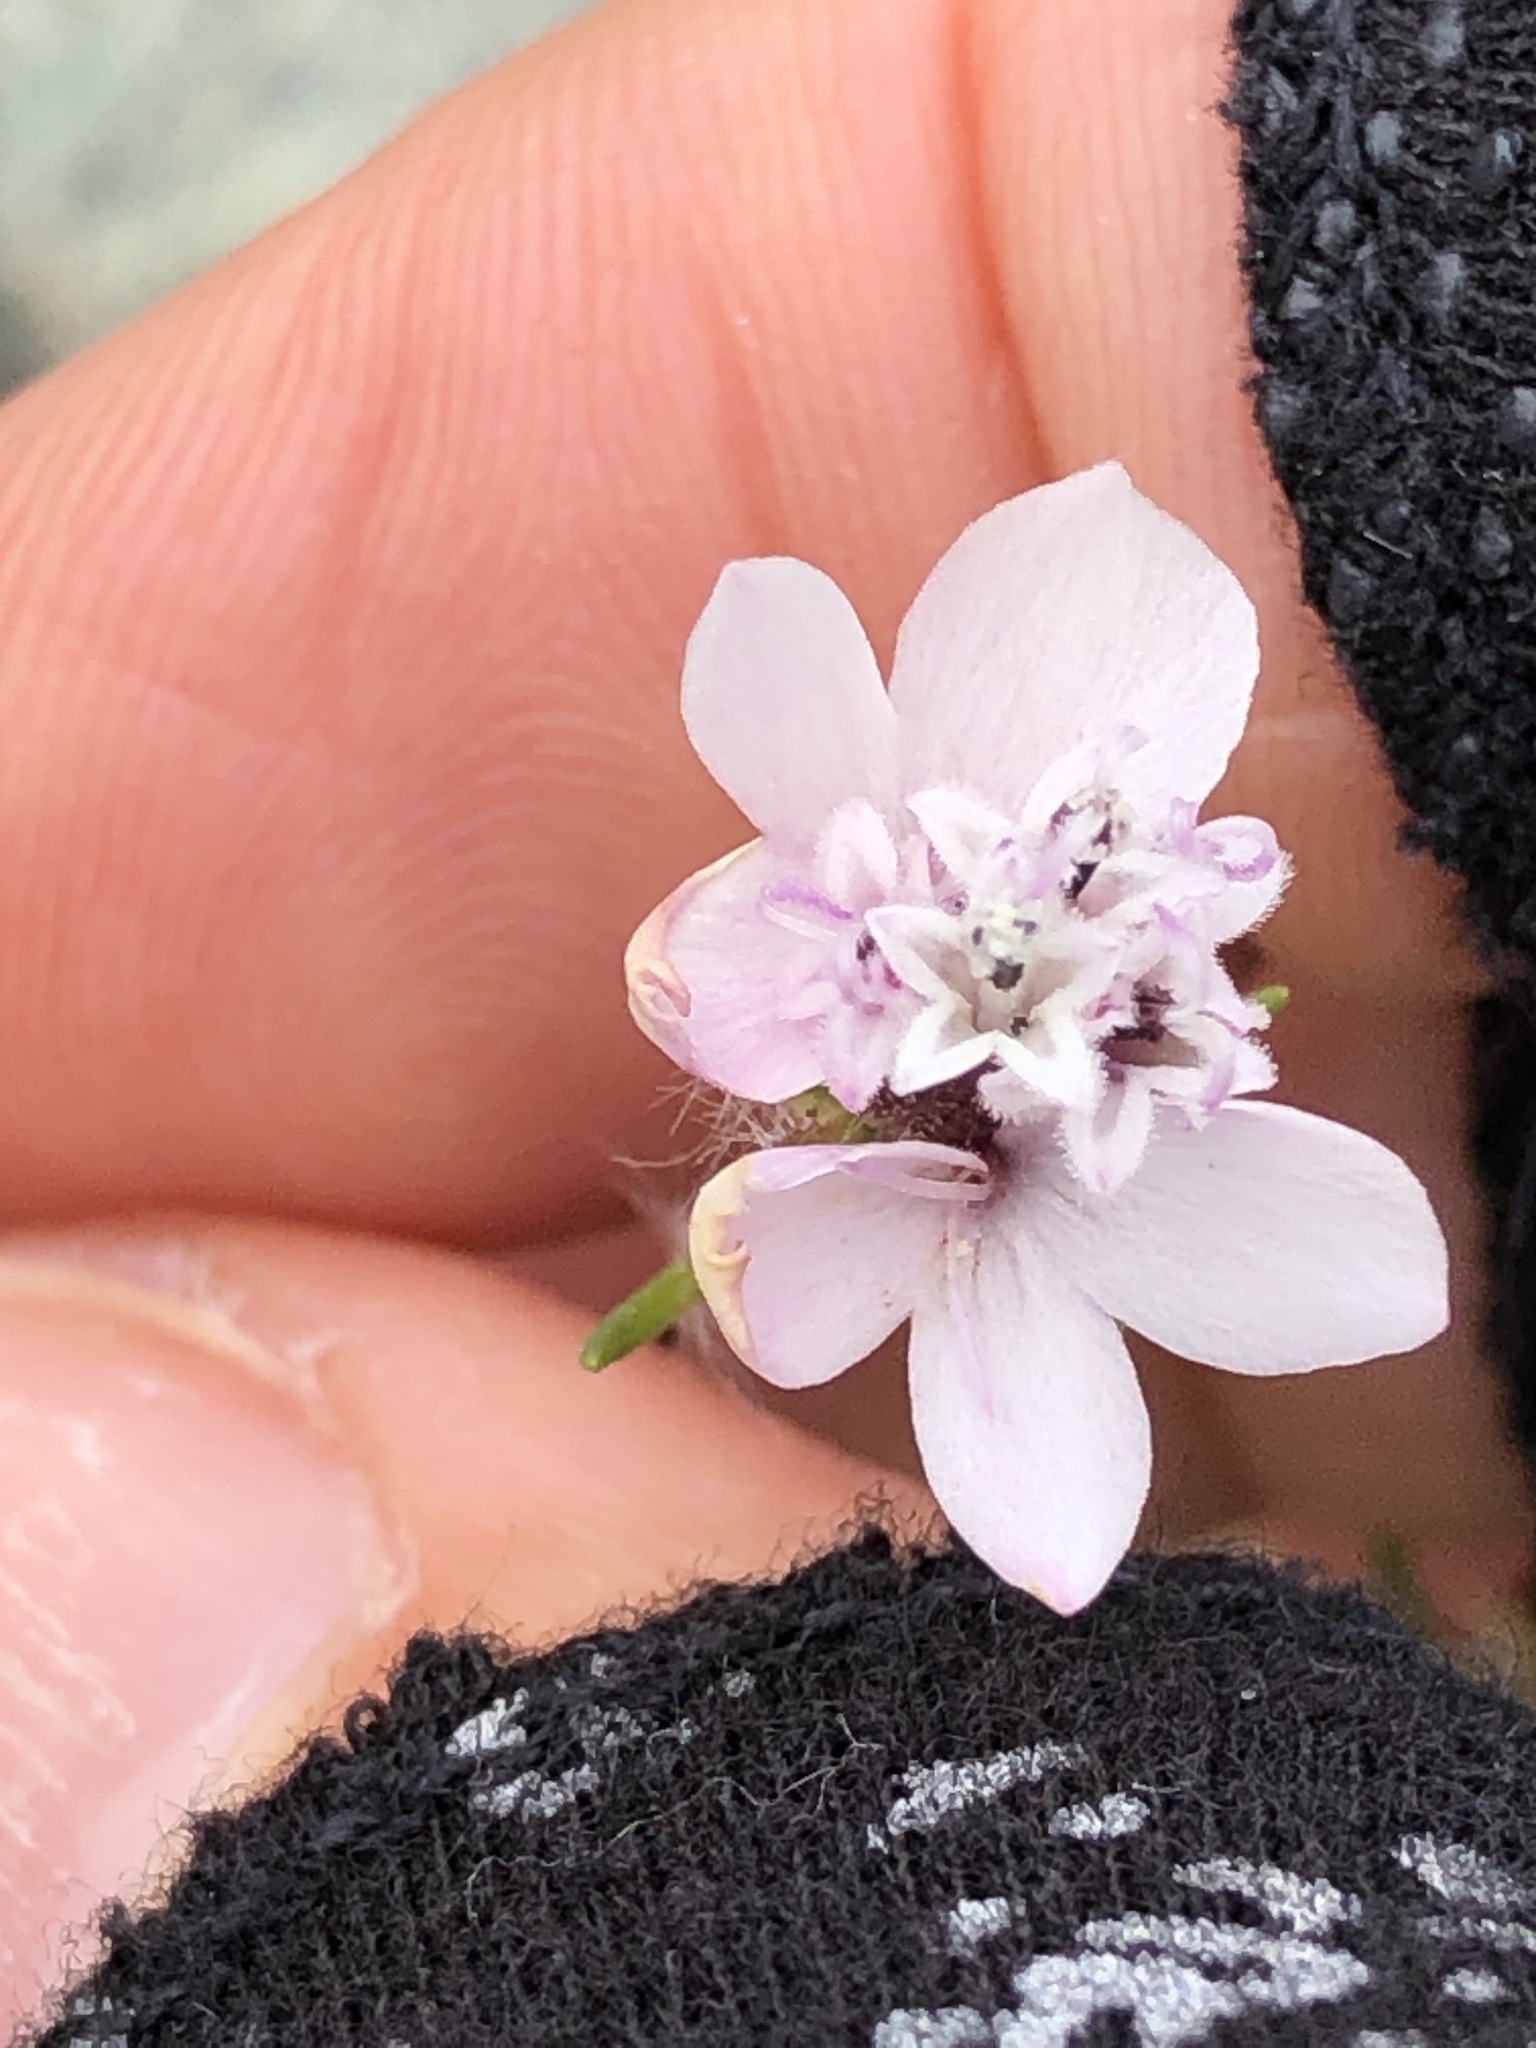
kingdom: Plantae
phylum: Tracheophyta
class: Magnoliopsida
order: Asterales
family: Asteraceae
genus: Calycadenia
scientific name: Calycadenia multiglandulosa
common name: Sticky calycadenia
